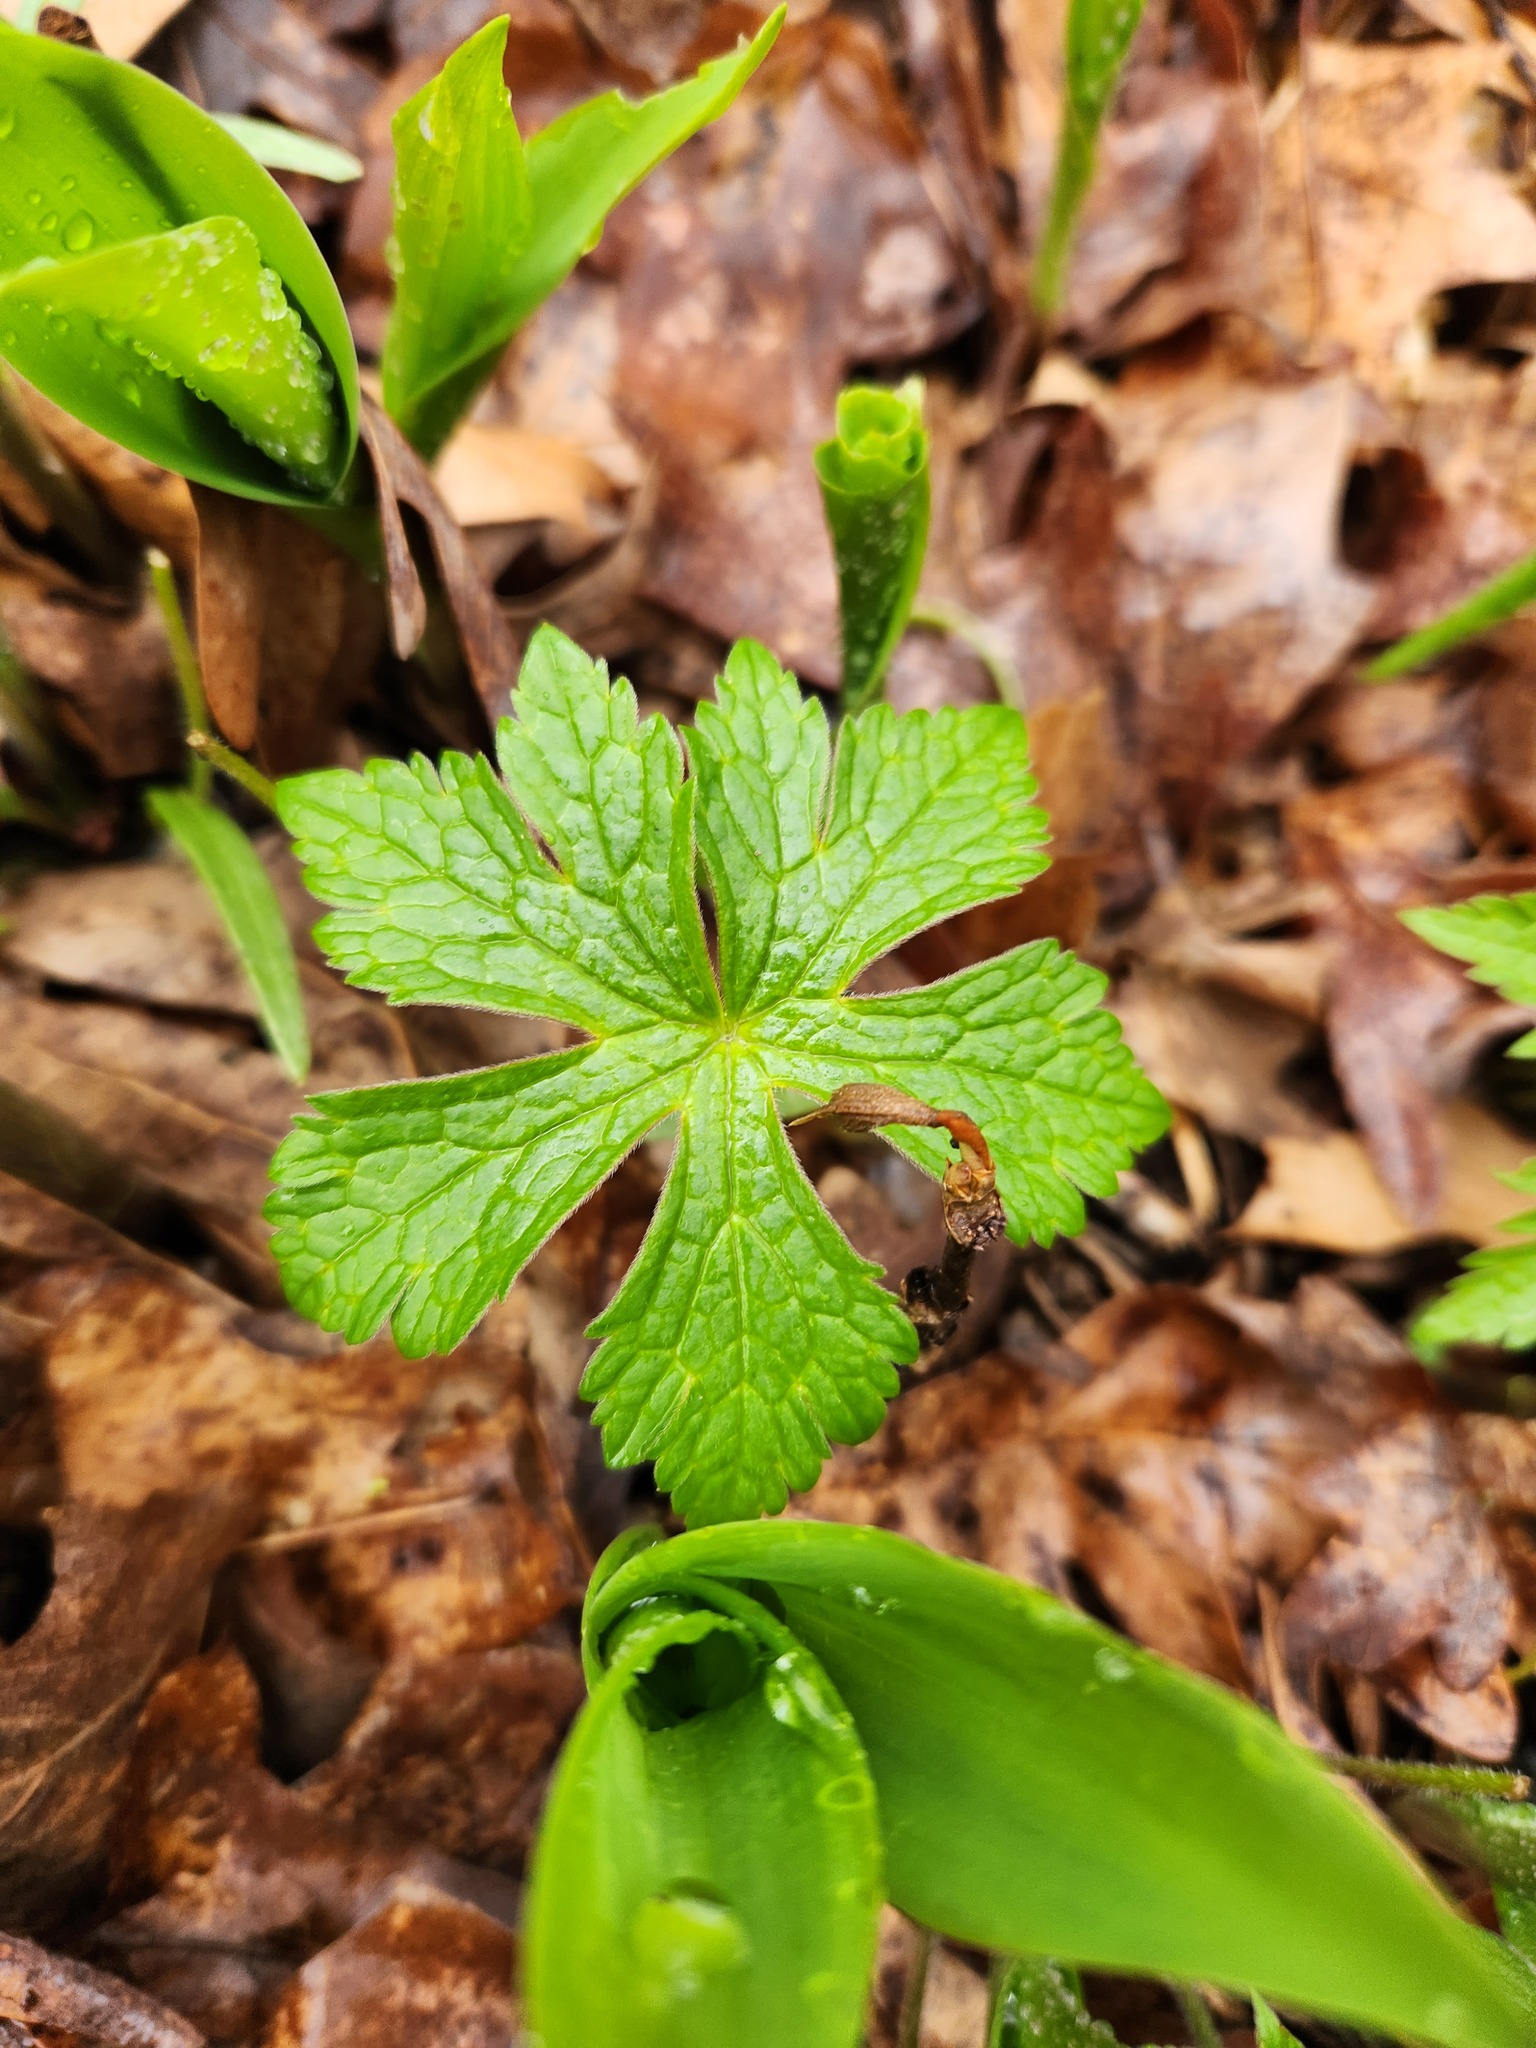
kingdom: Plantae
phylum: Tracheophyta
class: Magnoliopsida
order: Geraniales
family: Geraniaceae
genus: Geranium
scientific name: Geranium maculatum
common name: Spotted geranium
